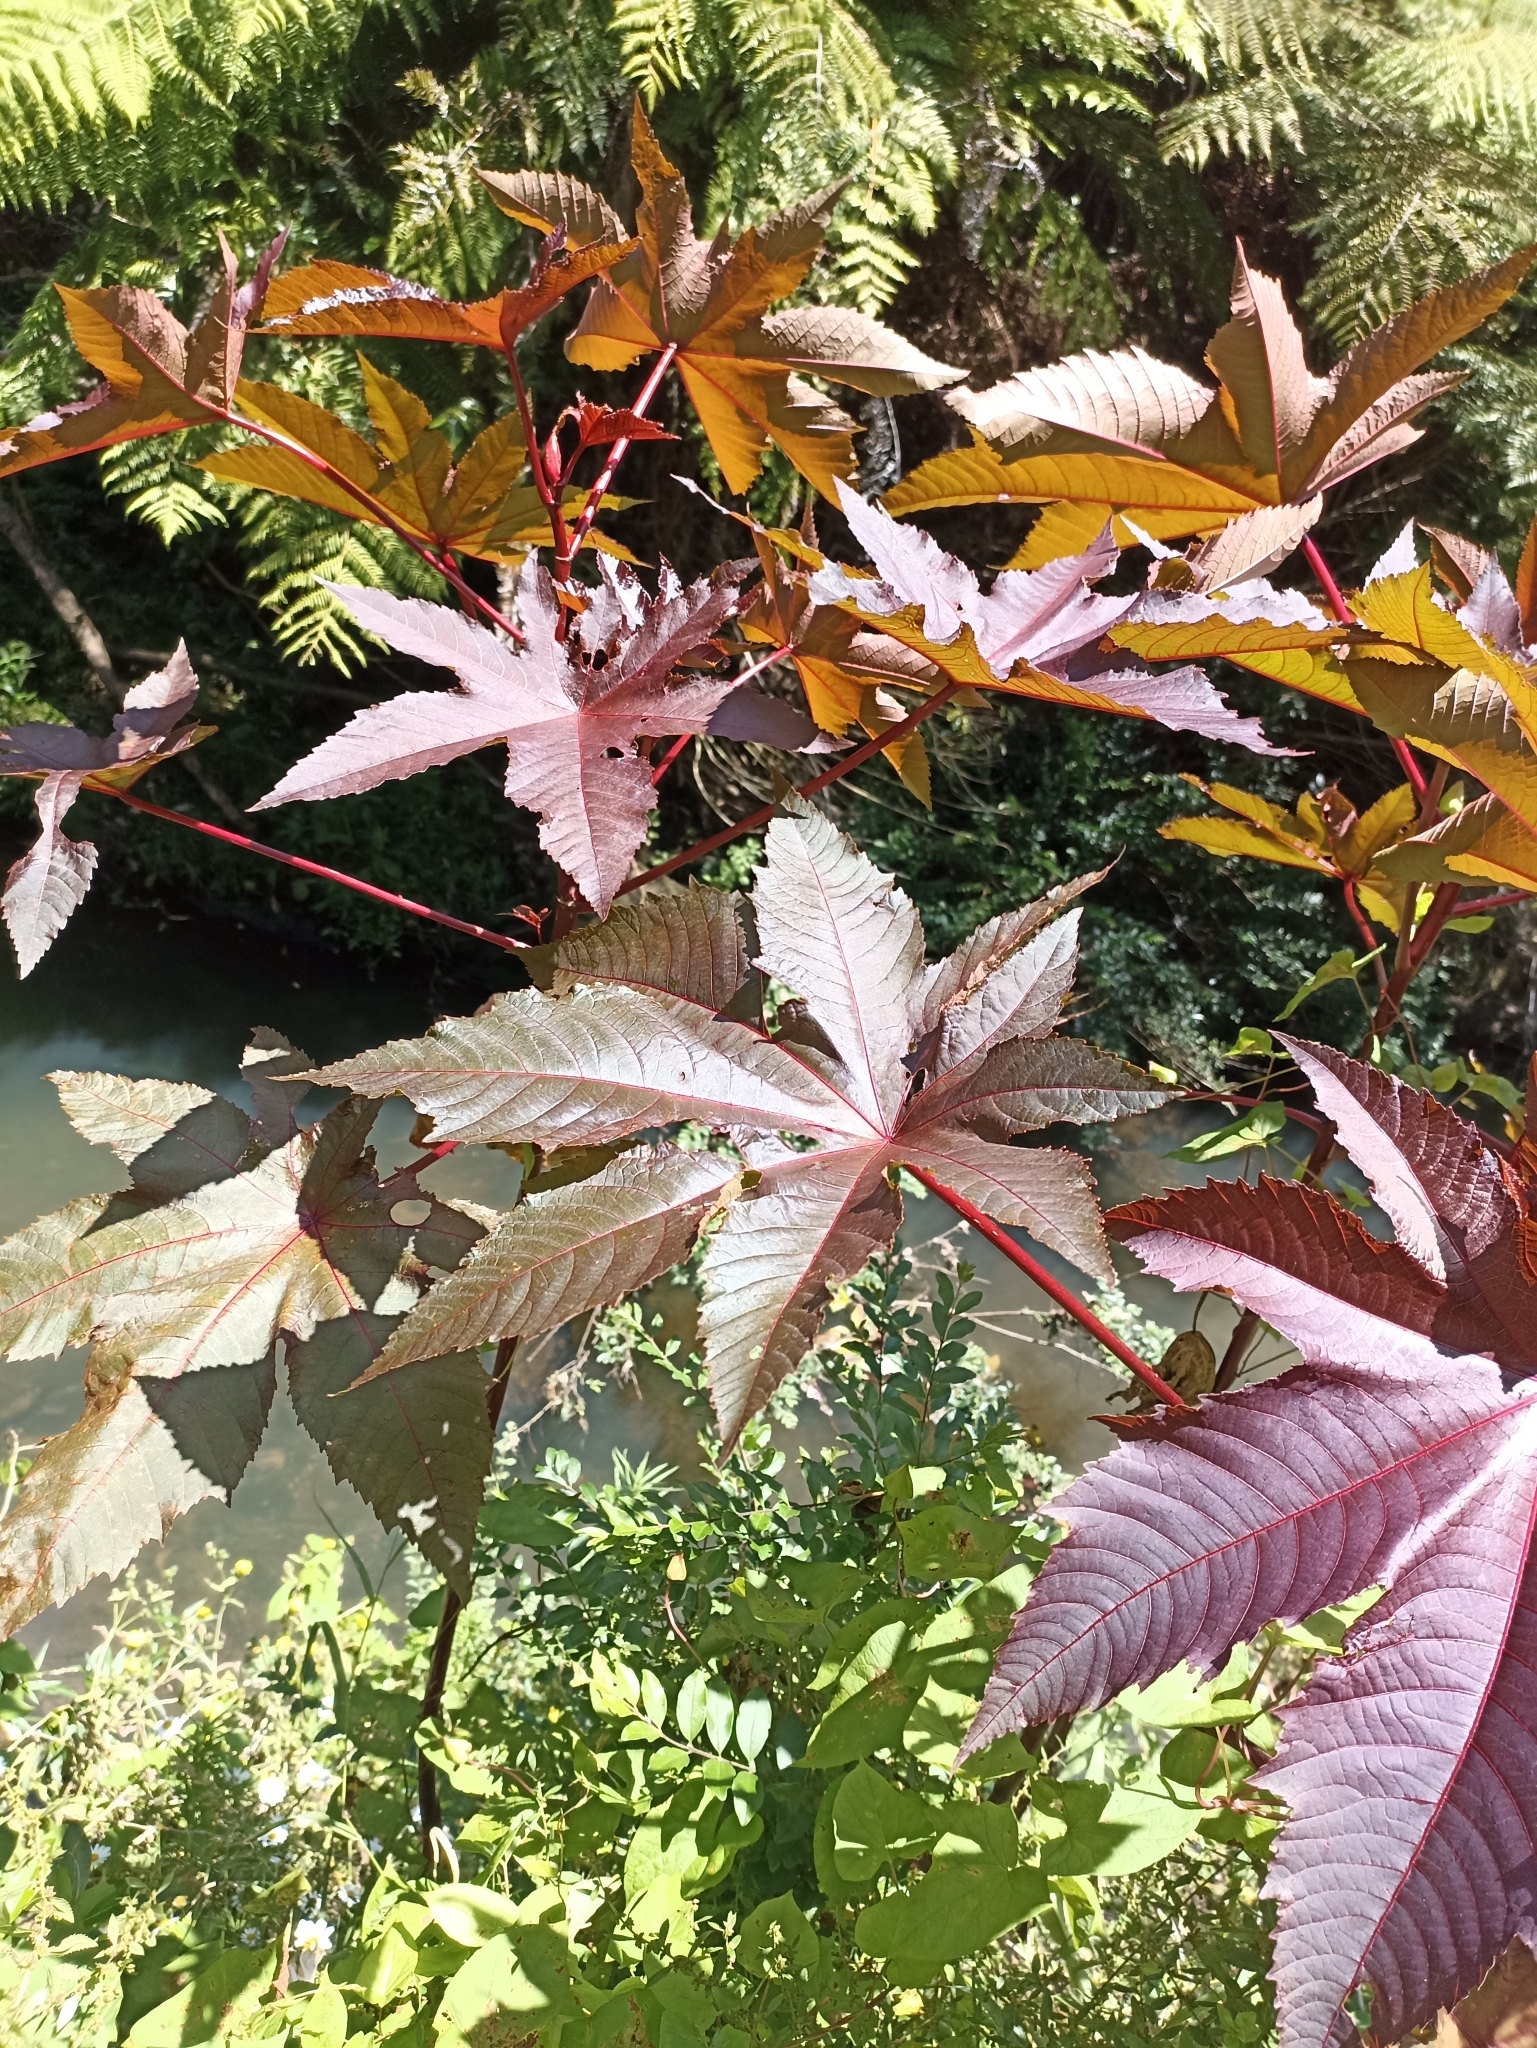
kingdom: Plantae
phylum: Tracheophyta
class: Magnoliopsida
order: Malpighiales
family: Euphorbiaceae
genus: Ricinus
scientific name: Ricinus communis
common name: Castor-oil-plant
